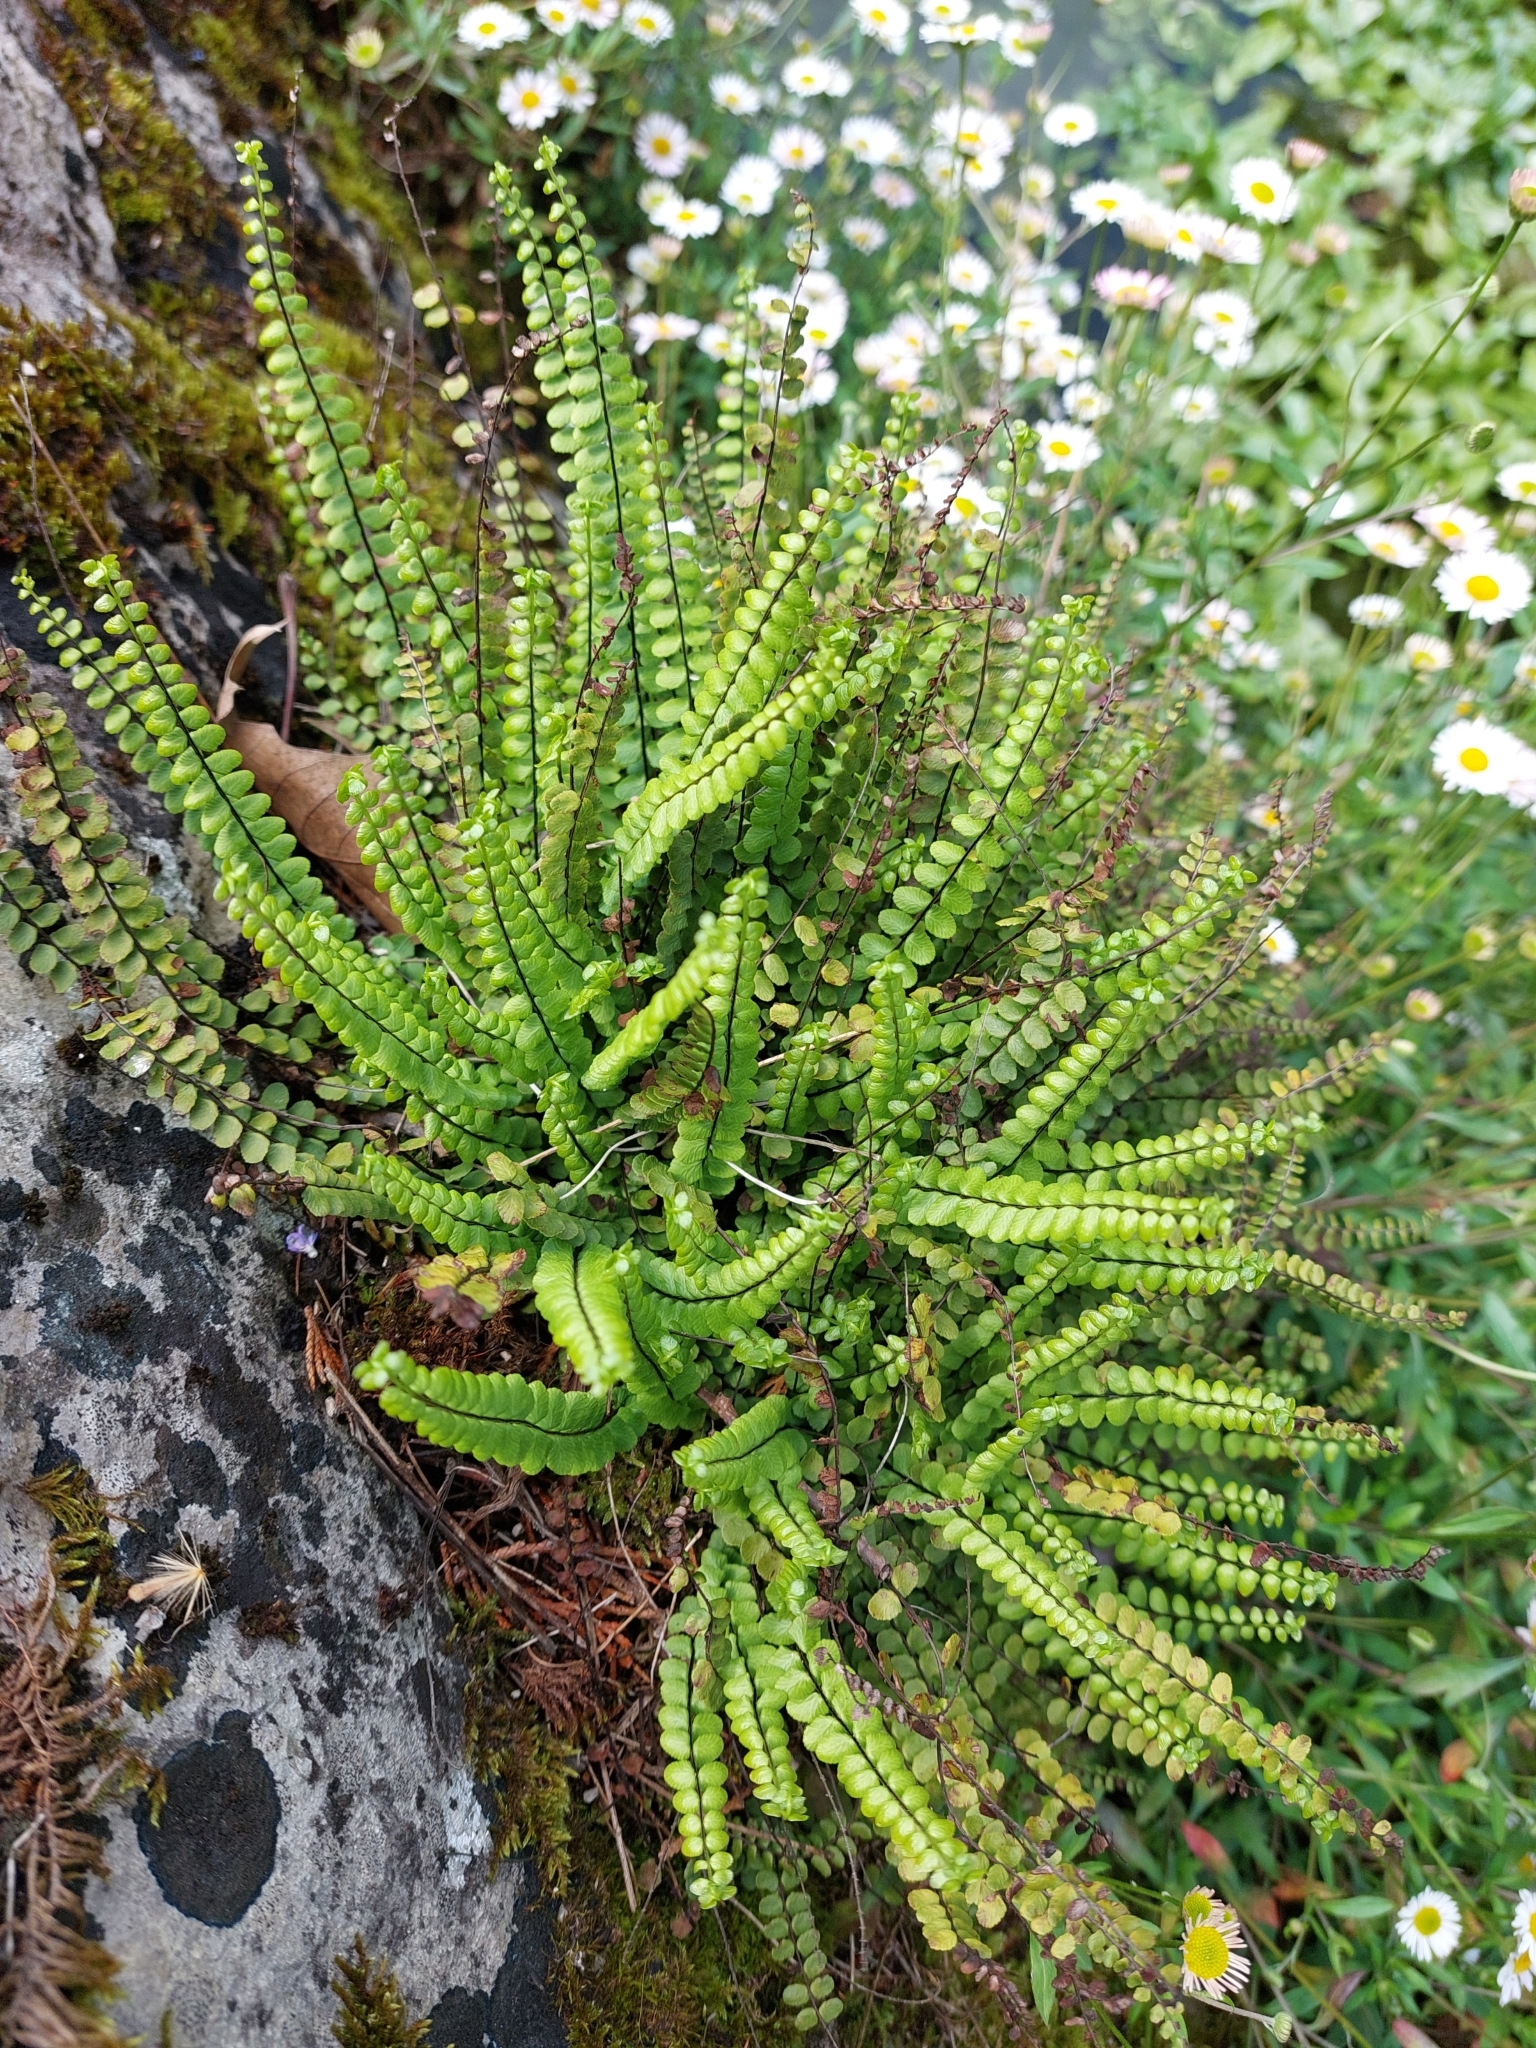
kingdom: Plantae
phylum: Tracheophyta
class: Polypodiopsida
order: Polypodiales
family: Aspleniaceae
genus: Asplenium
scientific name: Asplenium trichomanes
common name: Maidenhair spleenwort
